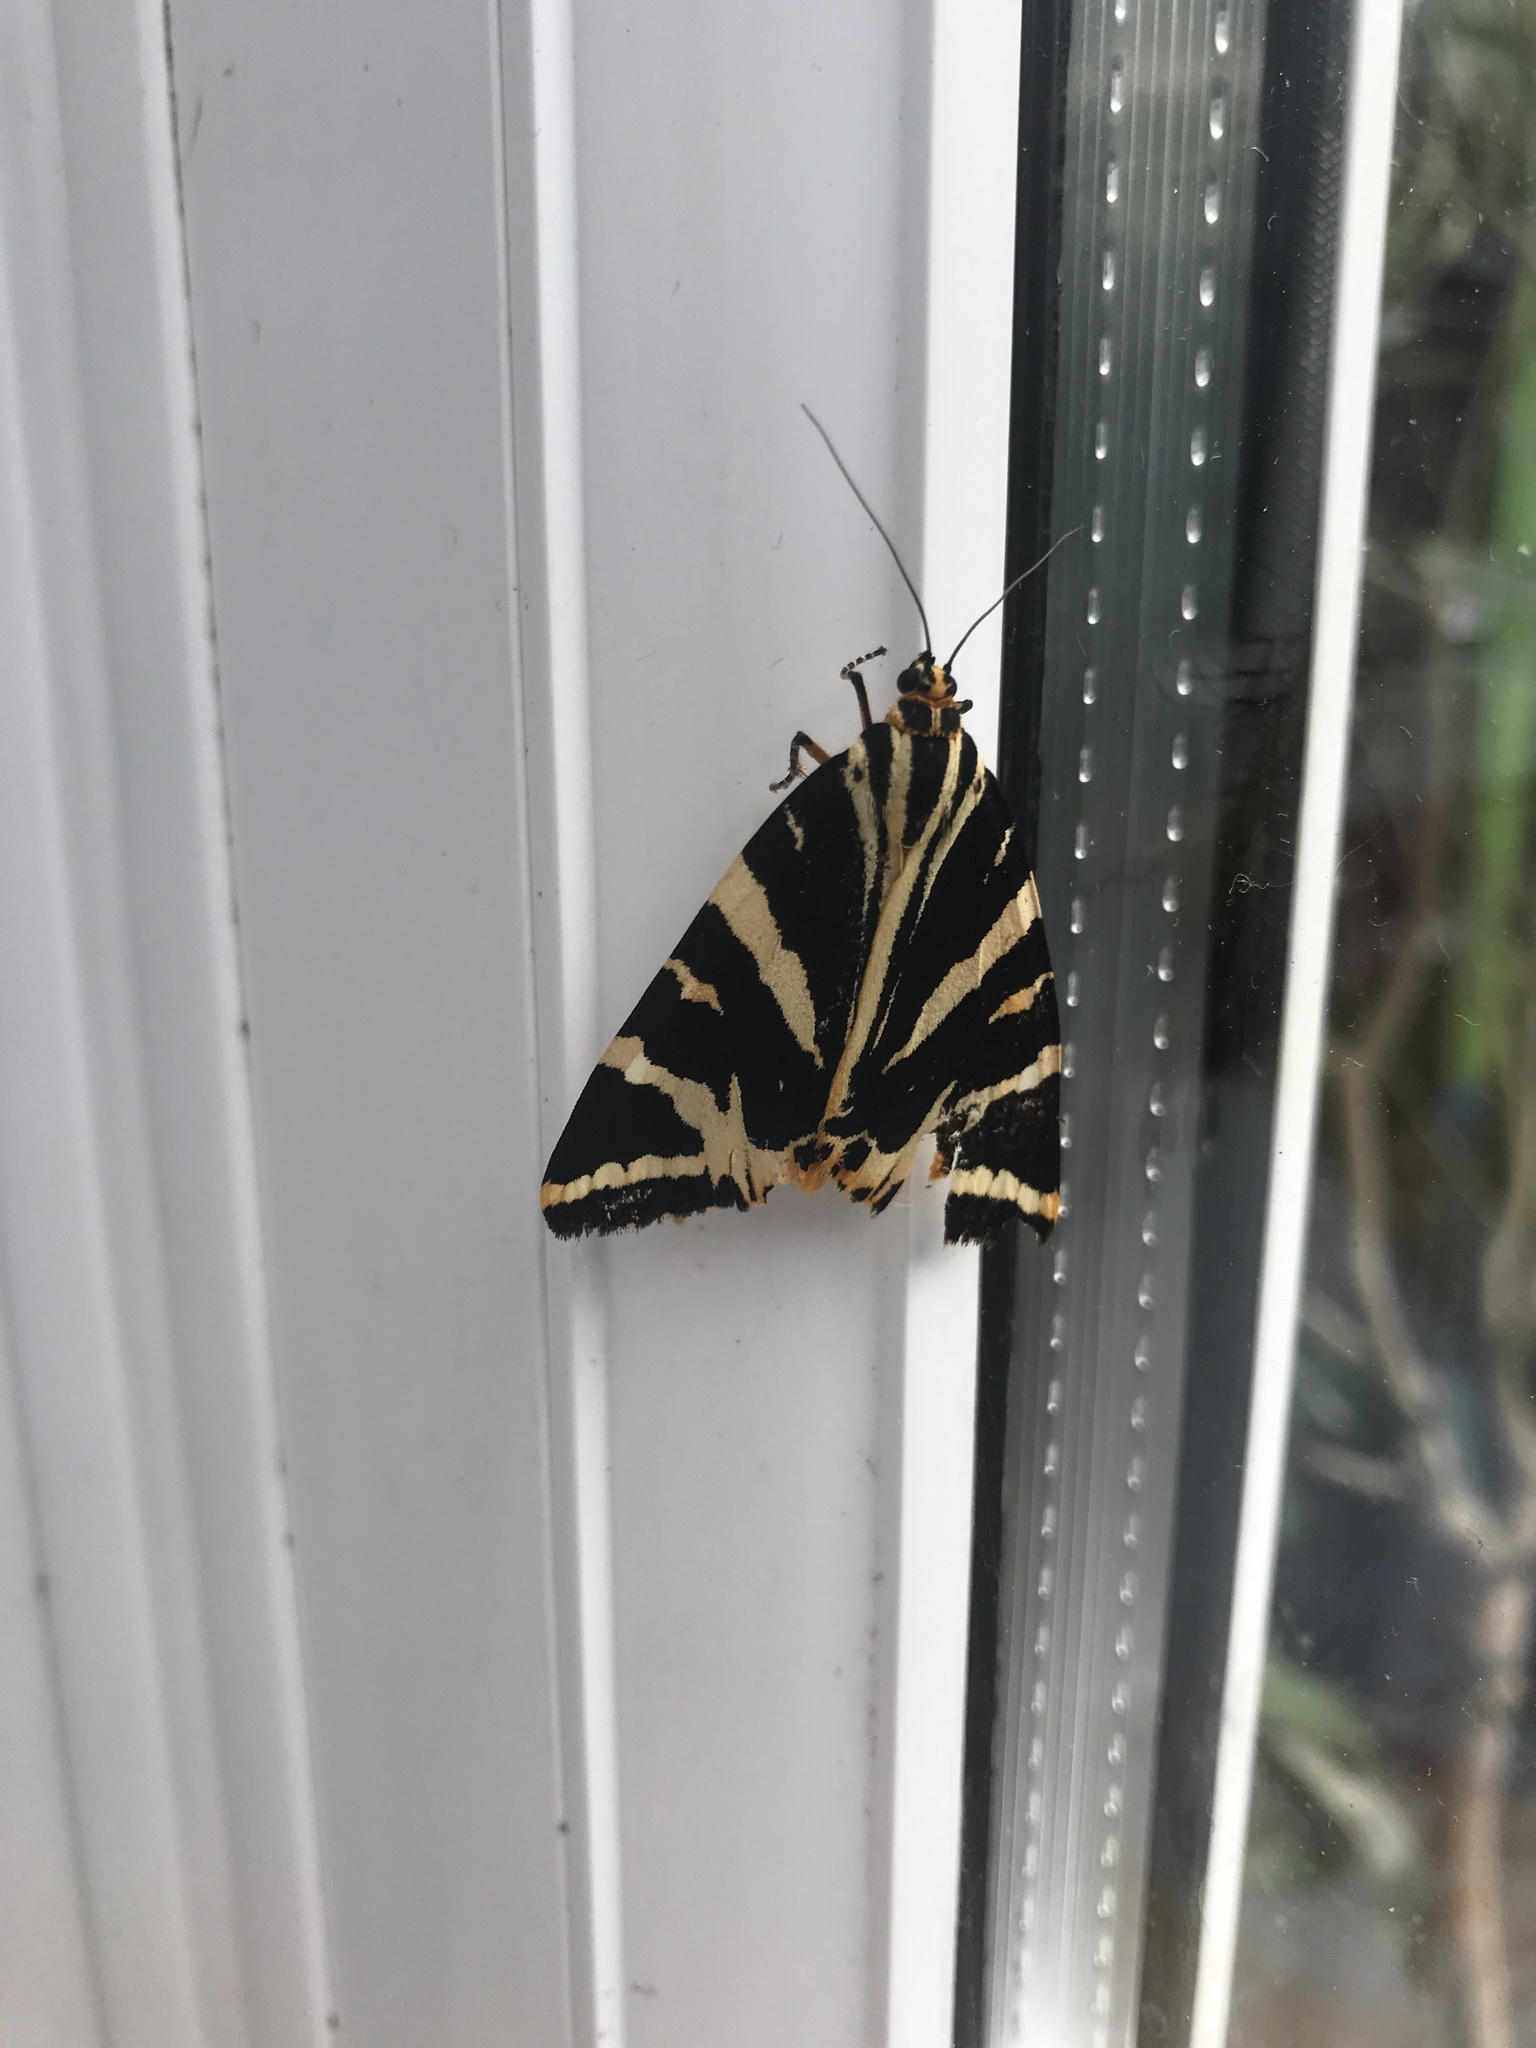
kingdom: Animalia
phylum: Arthropoda
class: Insecta
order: Lepidoptera
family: Erebidae
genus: Euplagia
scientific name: Euplagia quadripunctaria
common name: Jersey tiger
